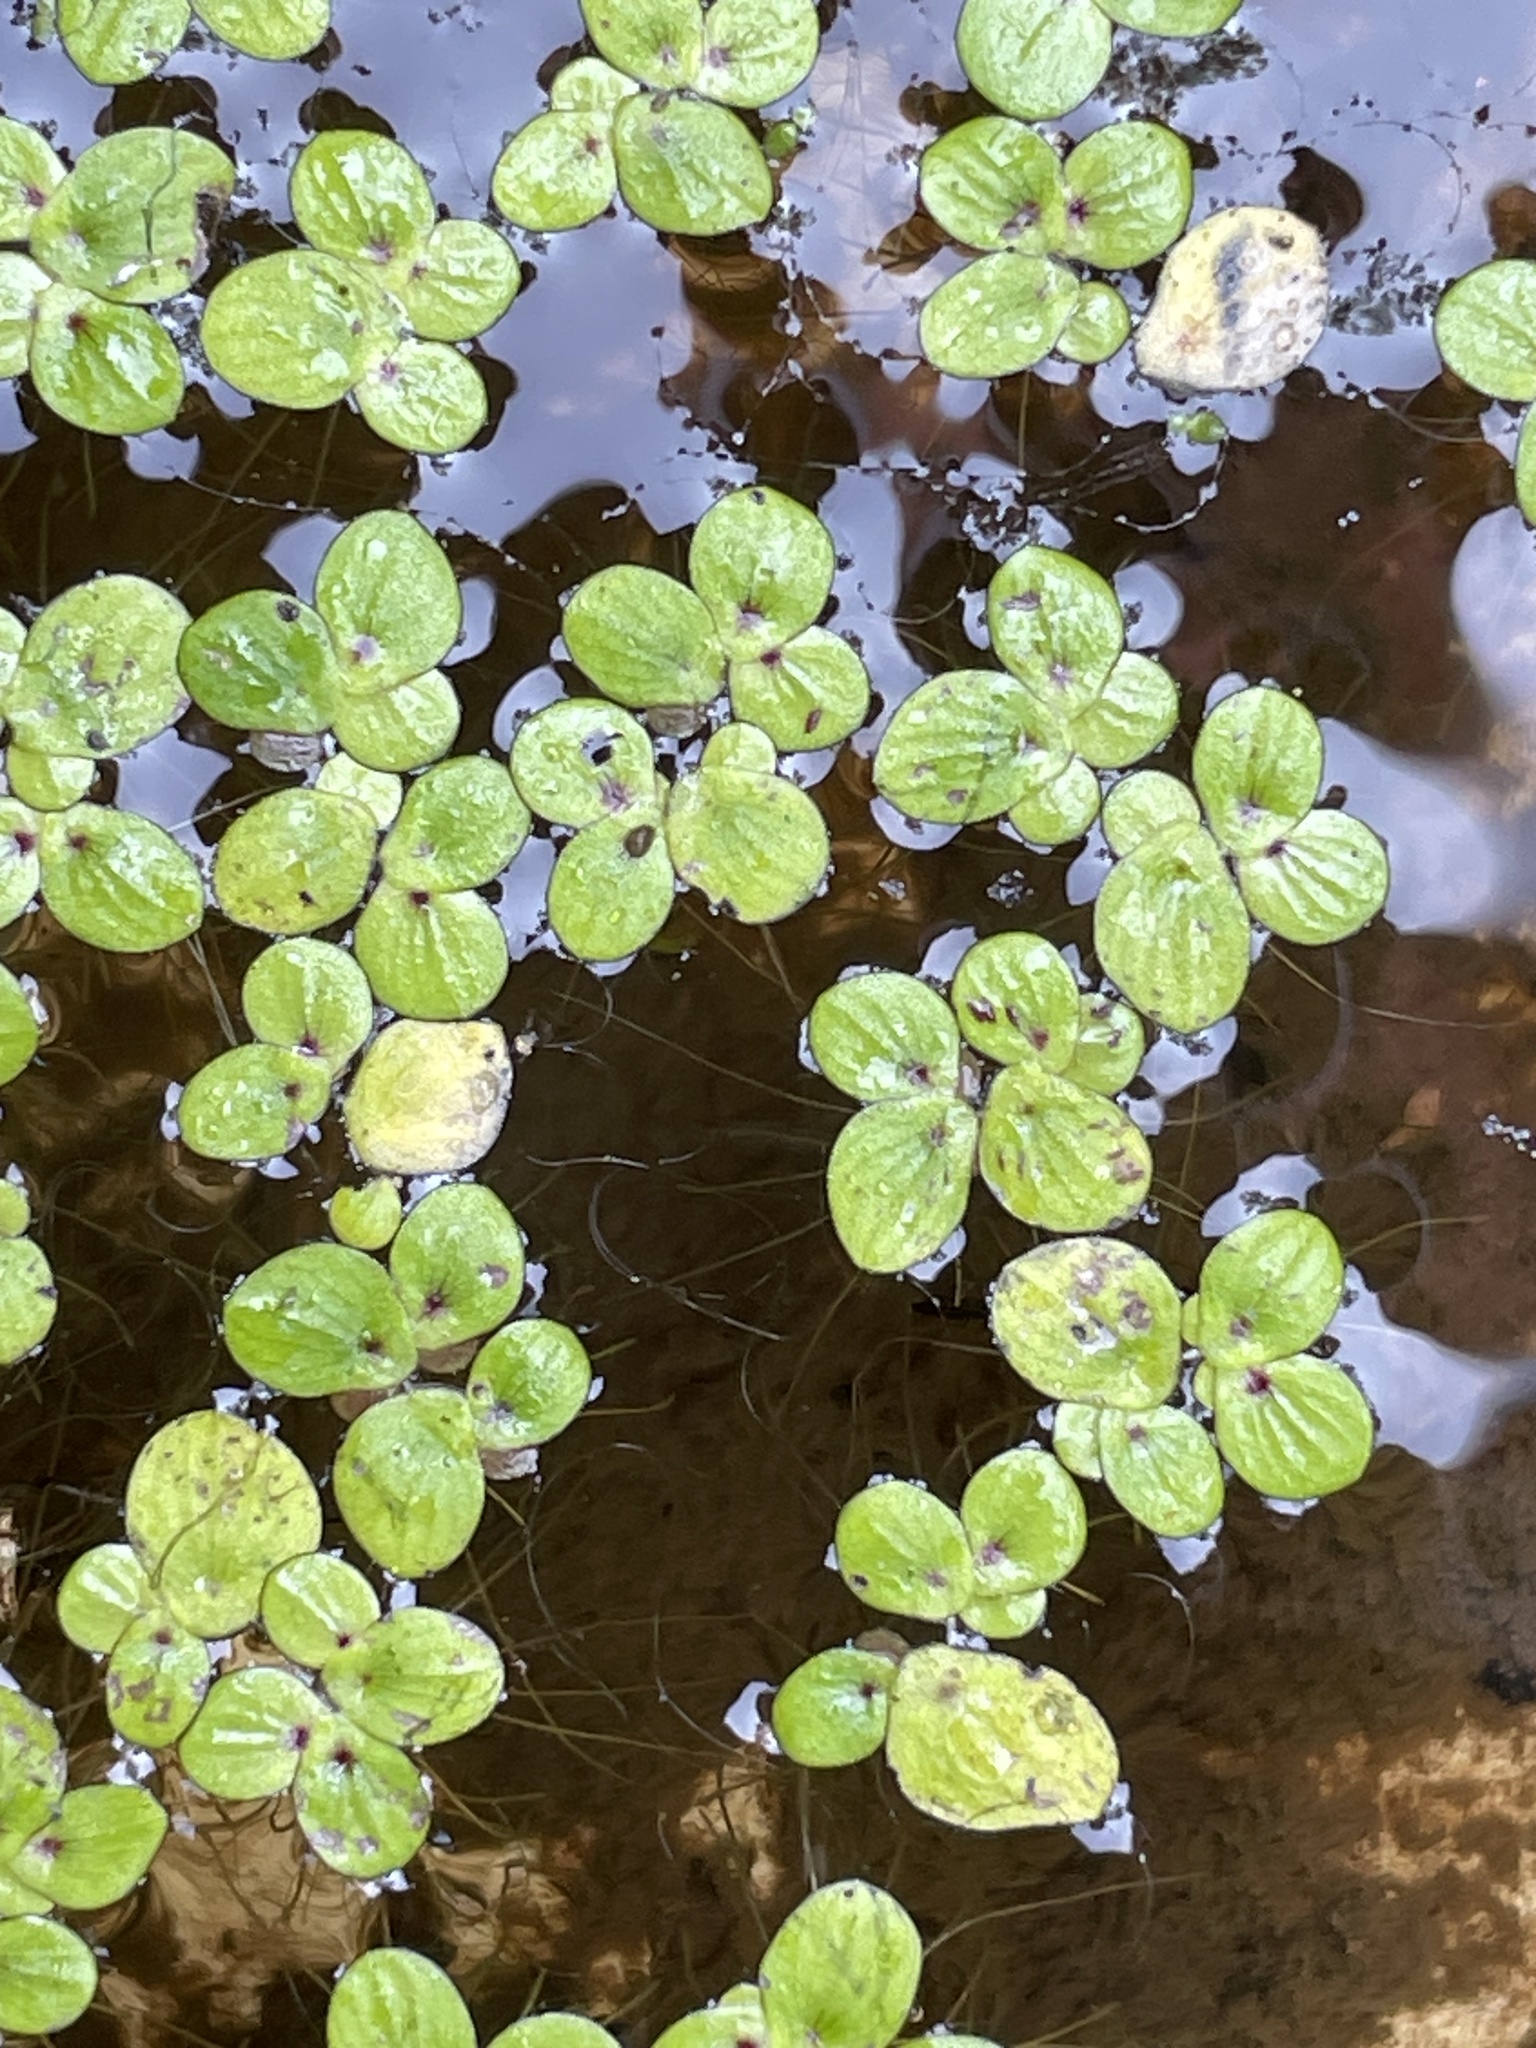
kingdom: Plantae
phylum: Tracheophyta
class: Liliopsida
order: Alismatales
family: Araceae
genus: Spirodela
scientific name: Spirodela polyrhiza
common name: Great duckweed
